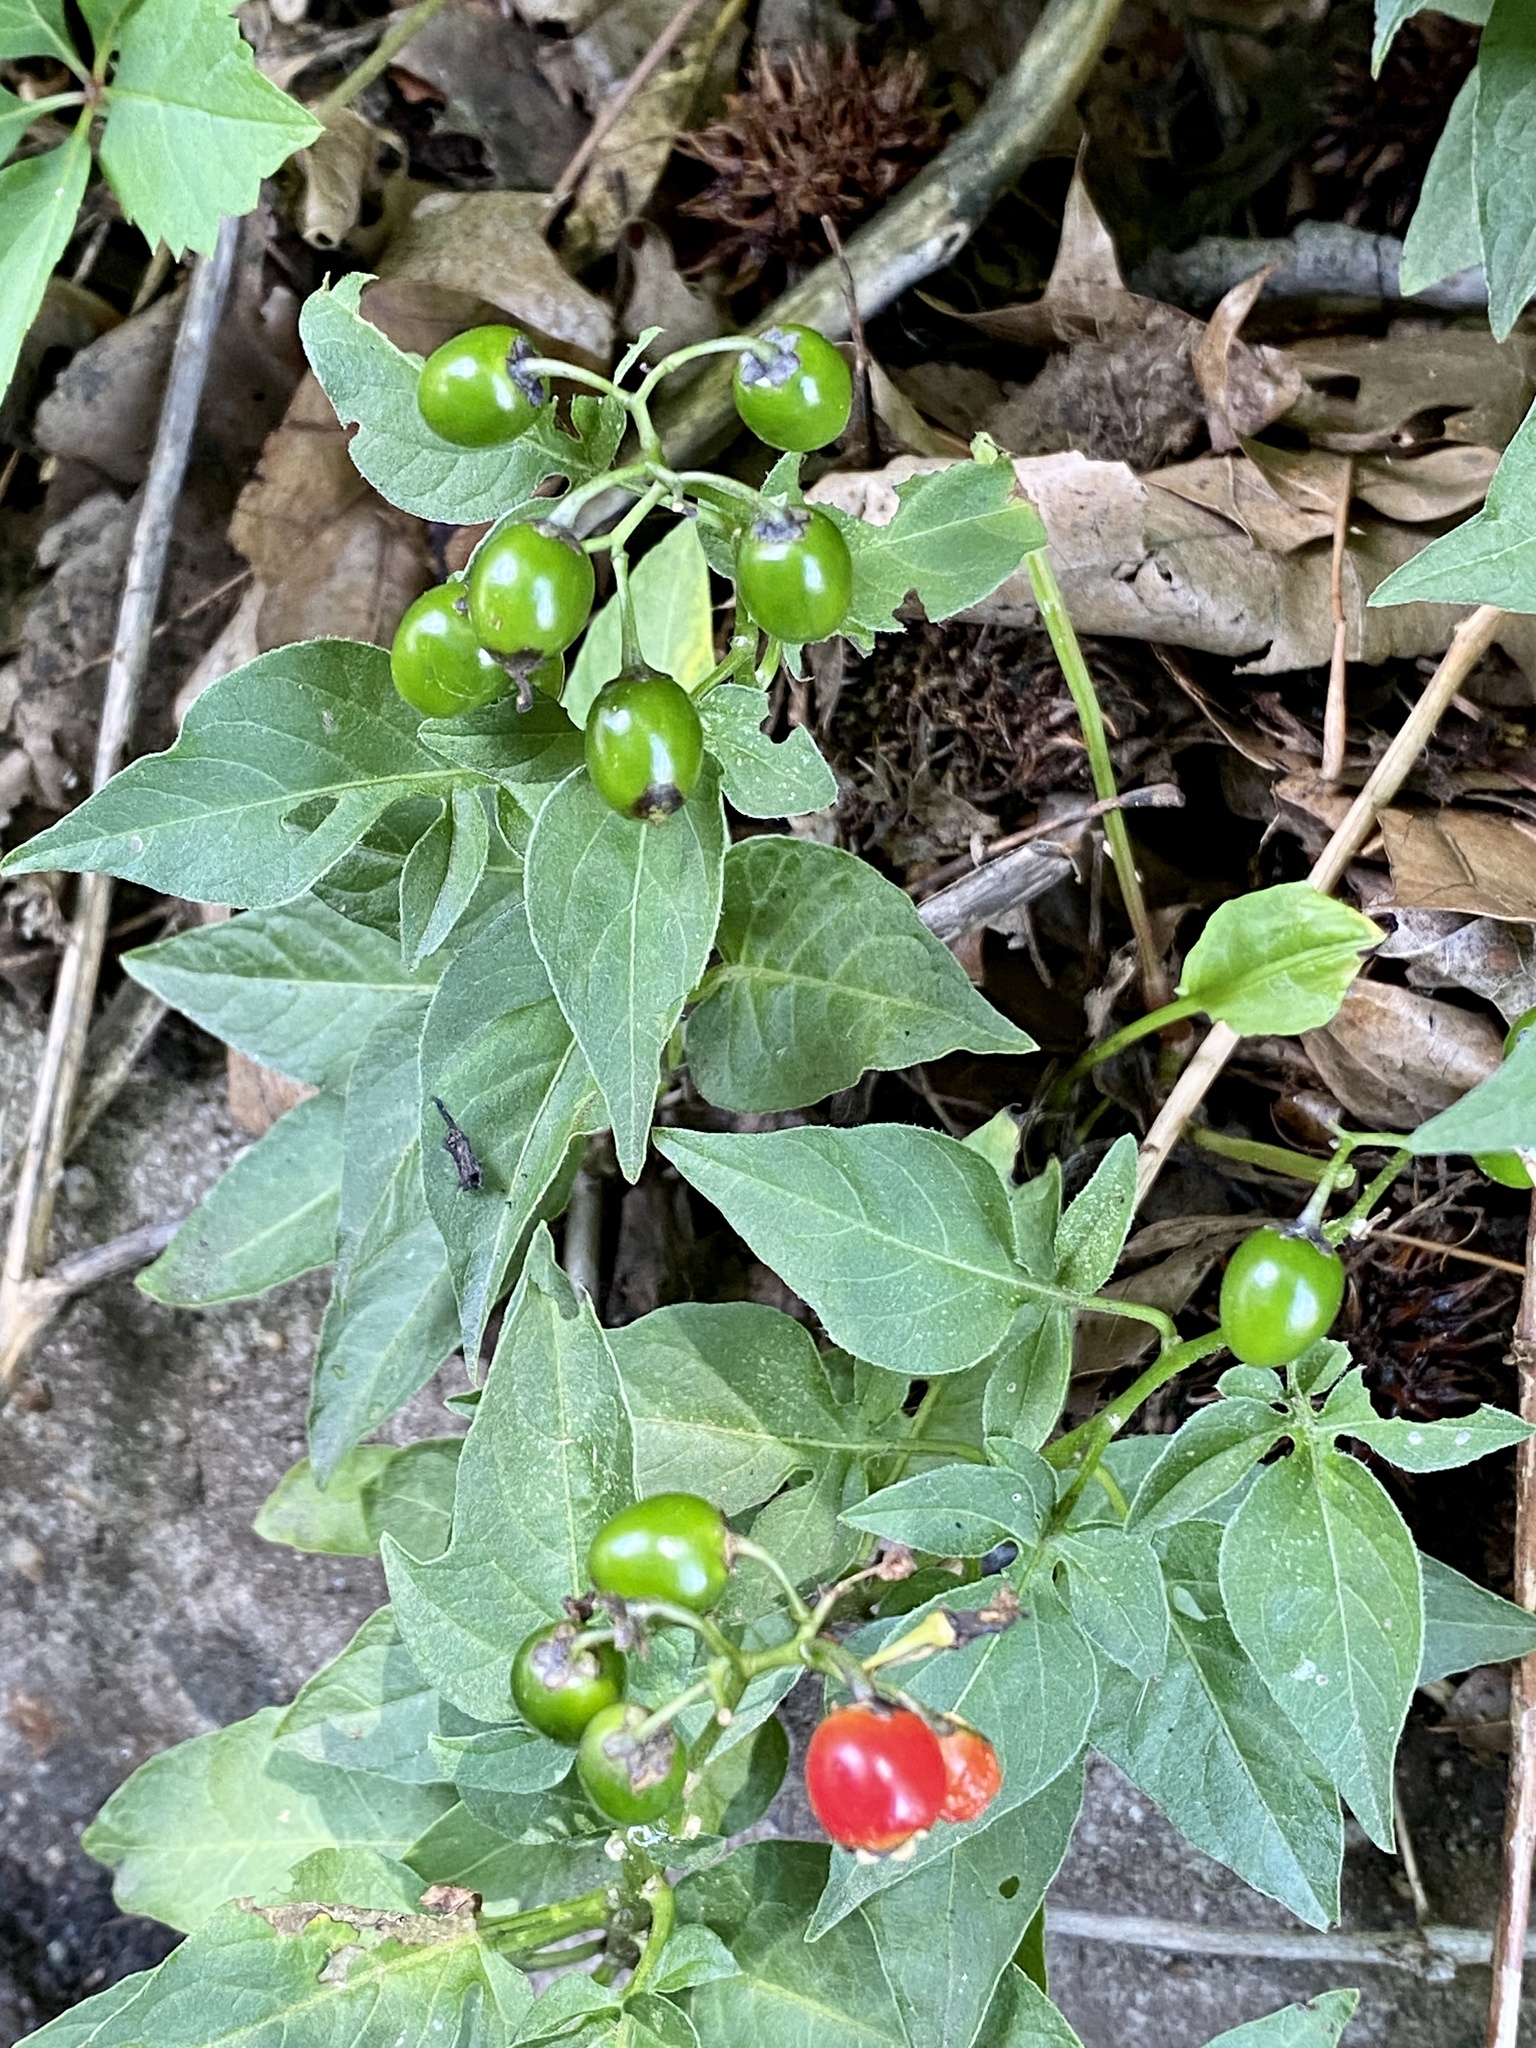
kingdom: Plantae
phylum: Tracheophyta
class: Magnoliopsida
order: Solanales
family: Solanaceae
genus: Solanum
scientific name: Solanum dulcamara
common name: Climbing nightshade
